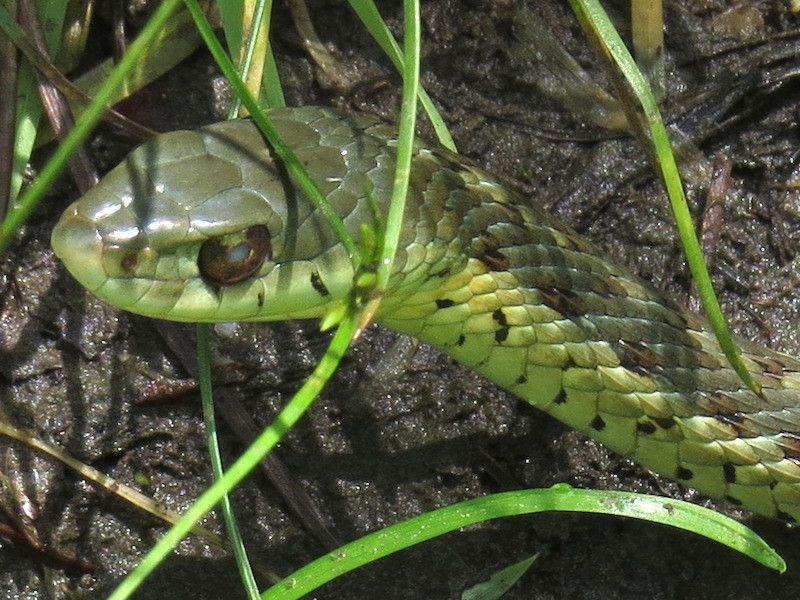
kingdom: Animalia
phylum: Chordata
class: Squamata
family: Colubridae
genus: Thamnophis
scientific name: Thamnophis sirtalis
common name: Common garter snake
